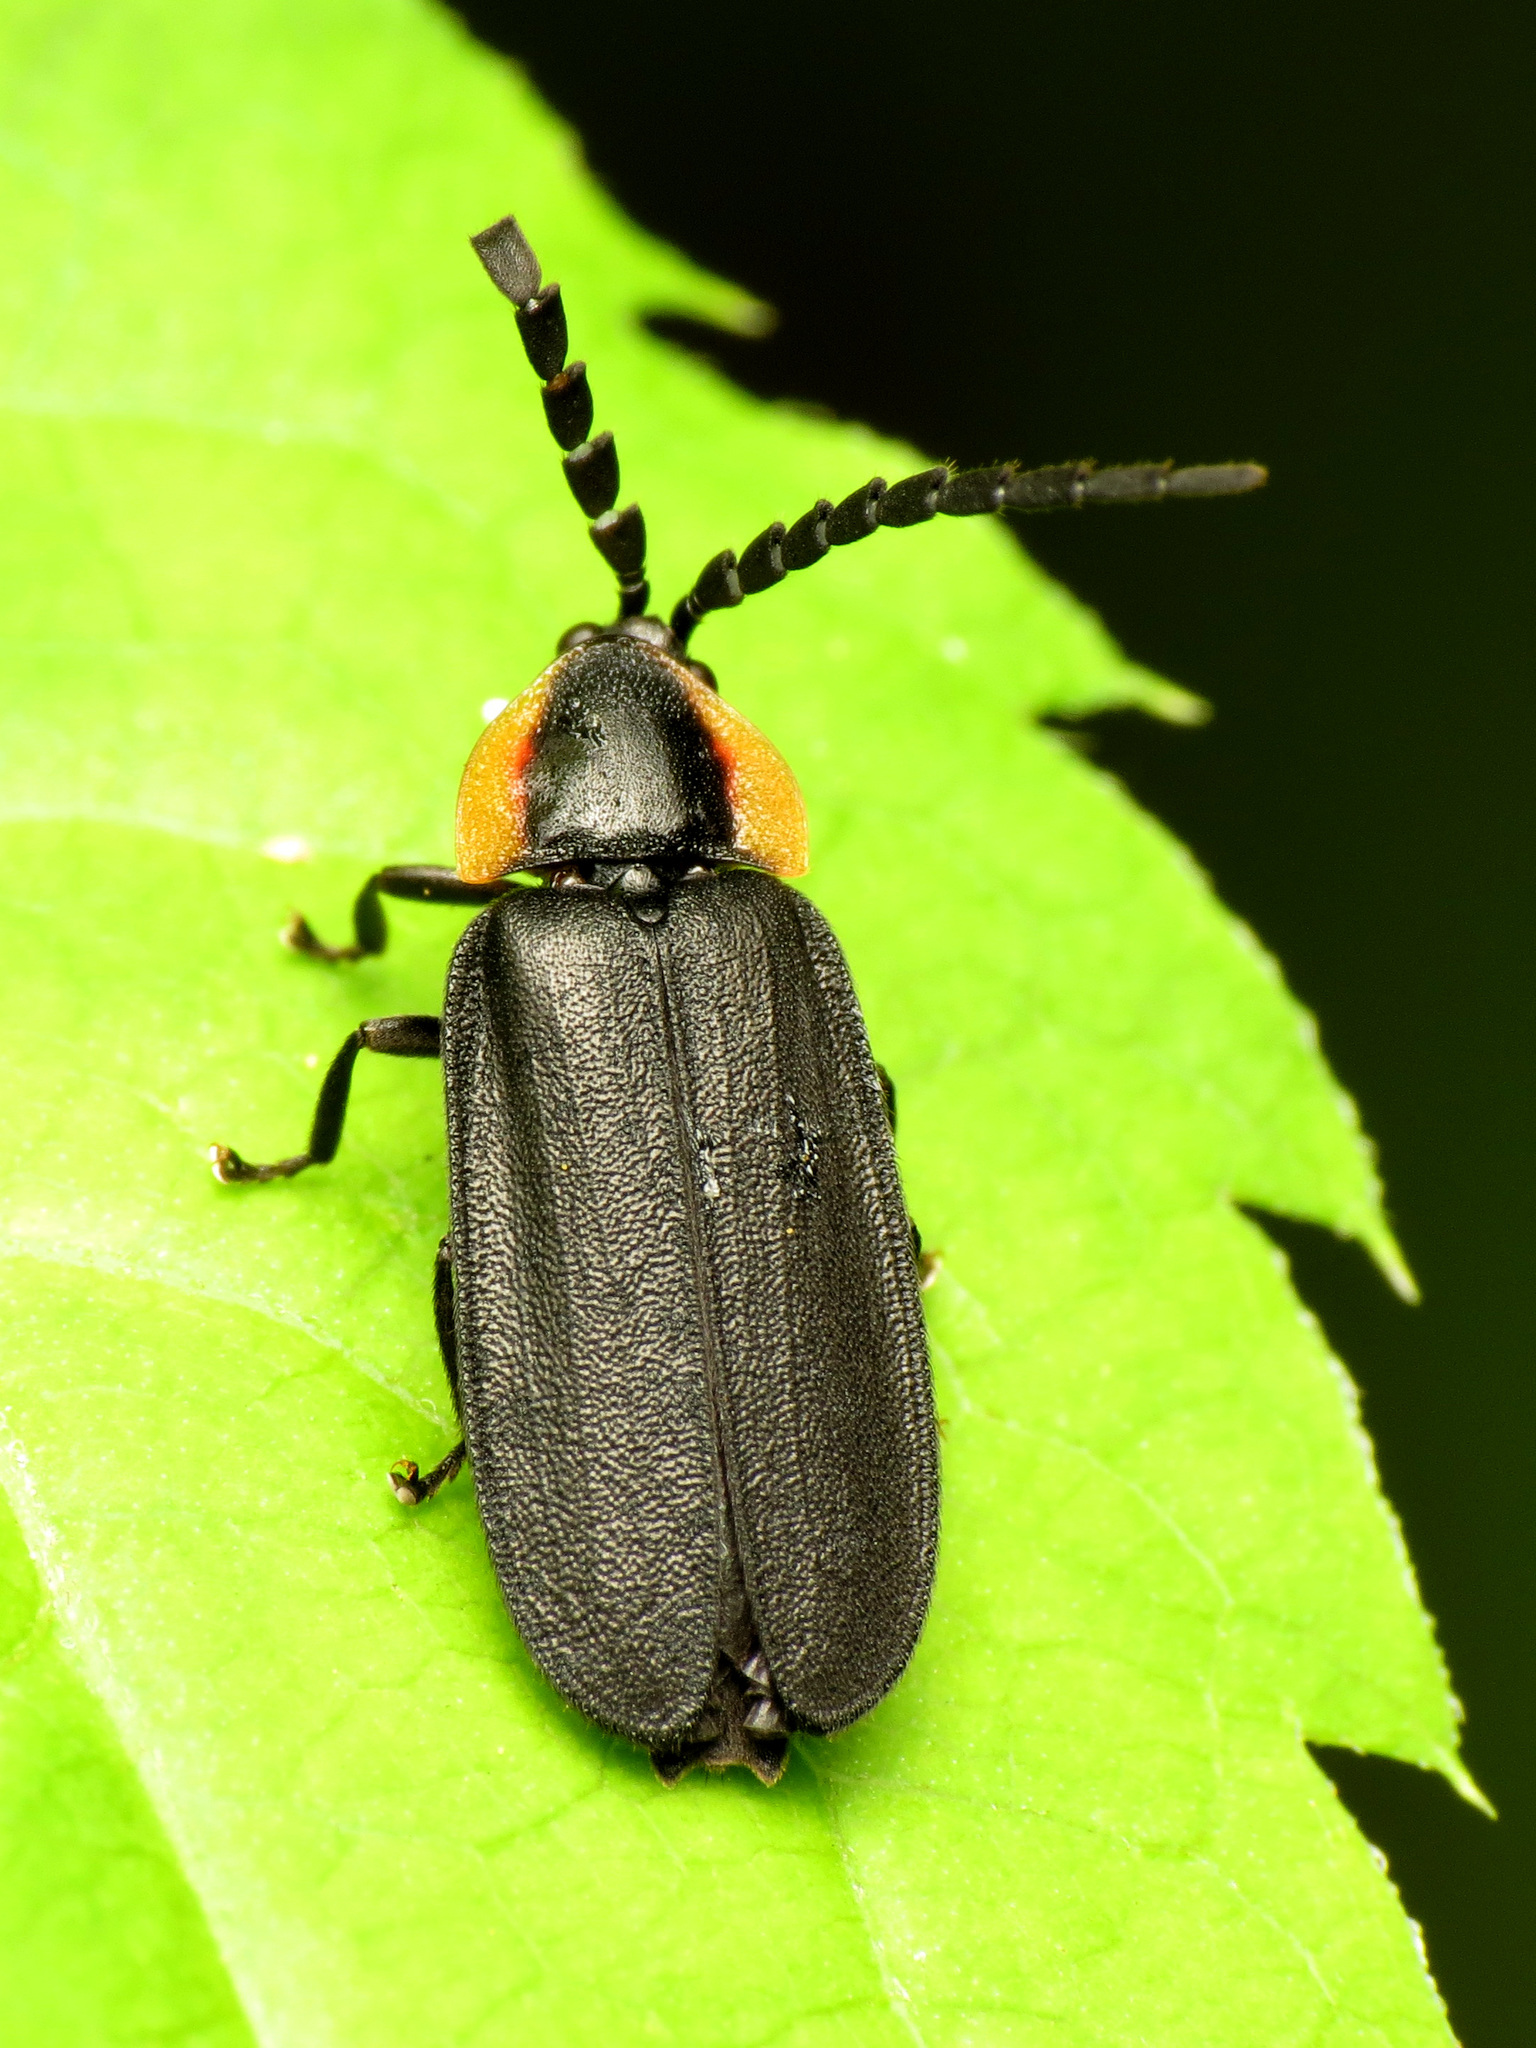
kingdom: Animalia
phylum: Arthropoda
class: Insecta
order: Coleoptera
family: Lampyridae
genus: Lucidota
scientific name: Lucidota atra
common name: Black firefly
